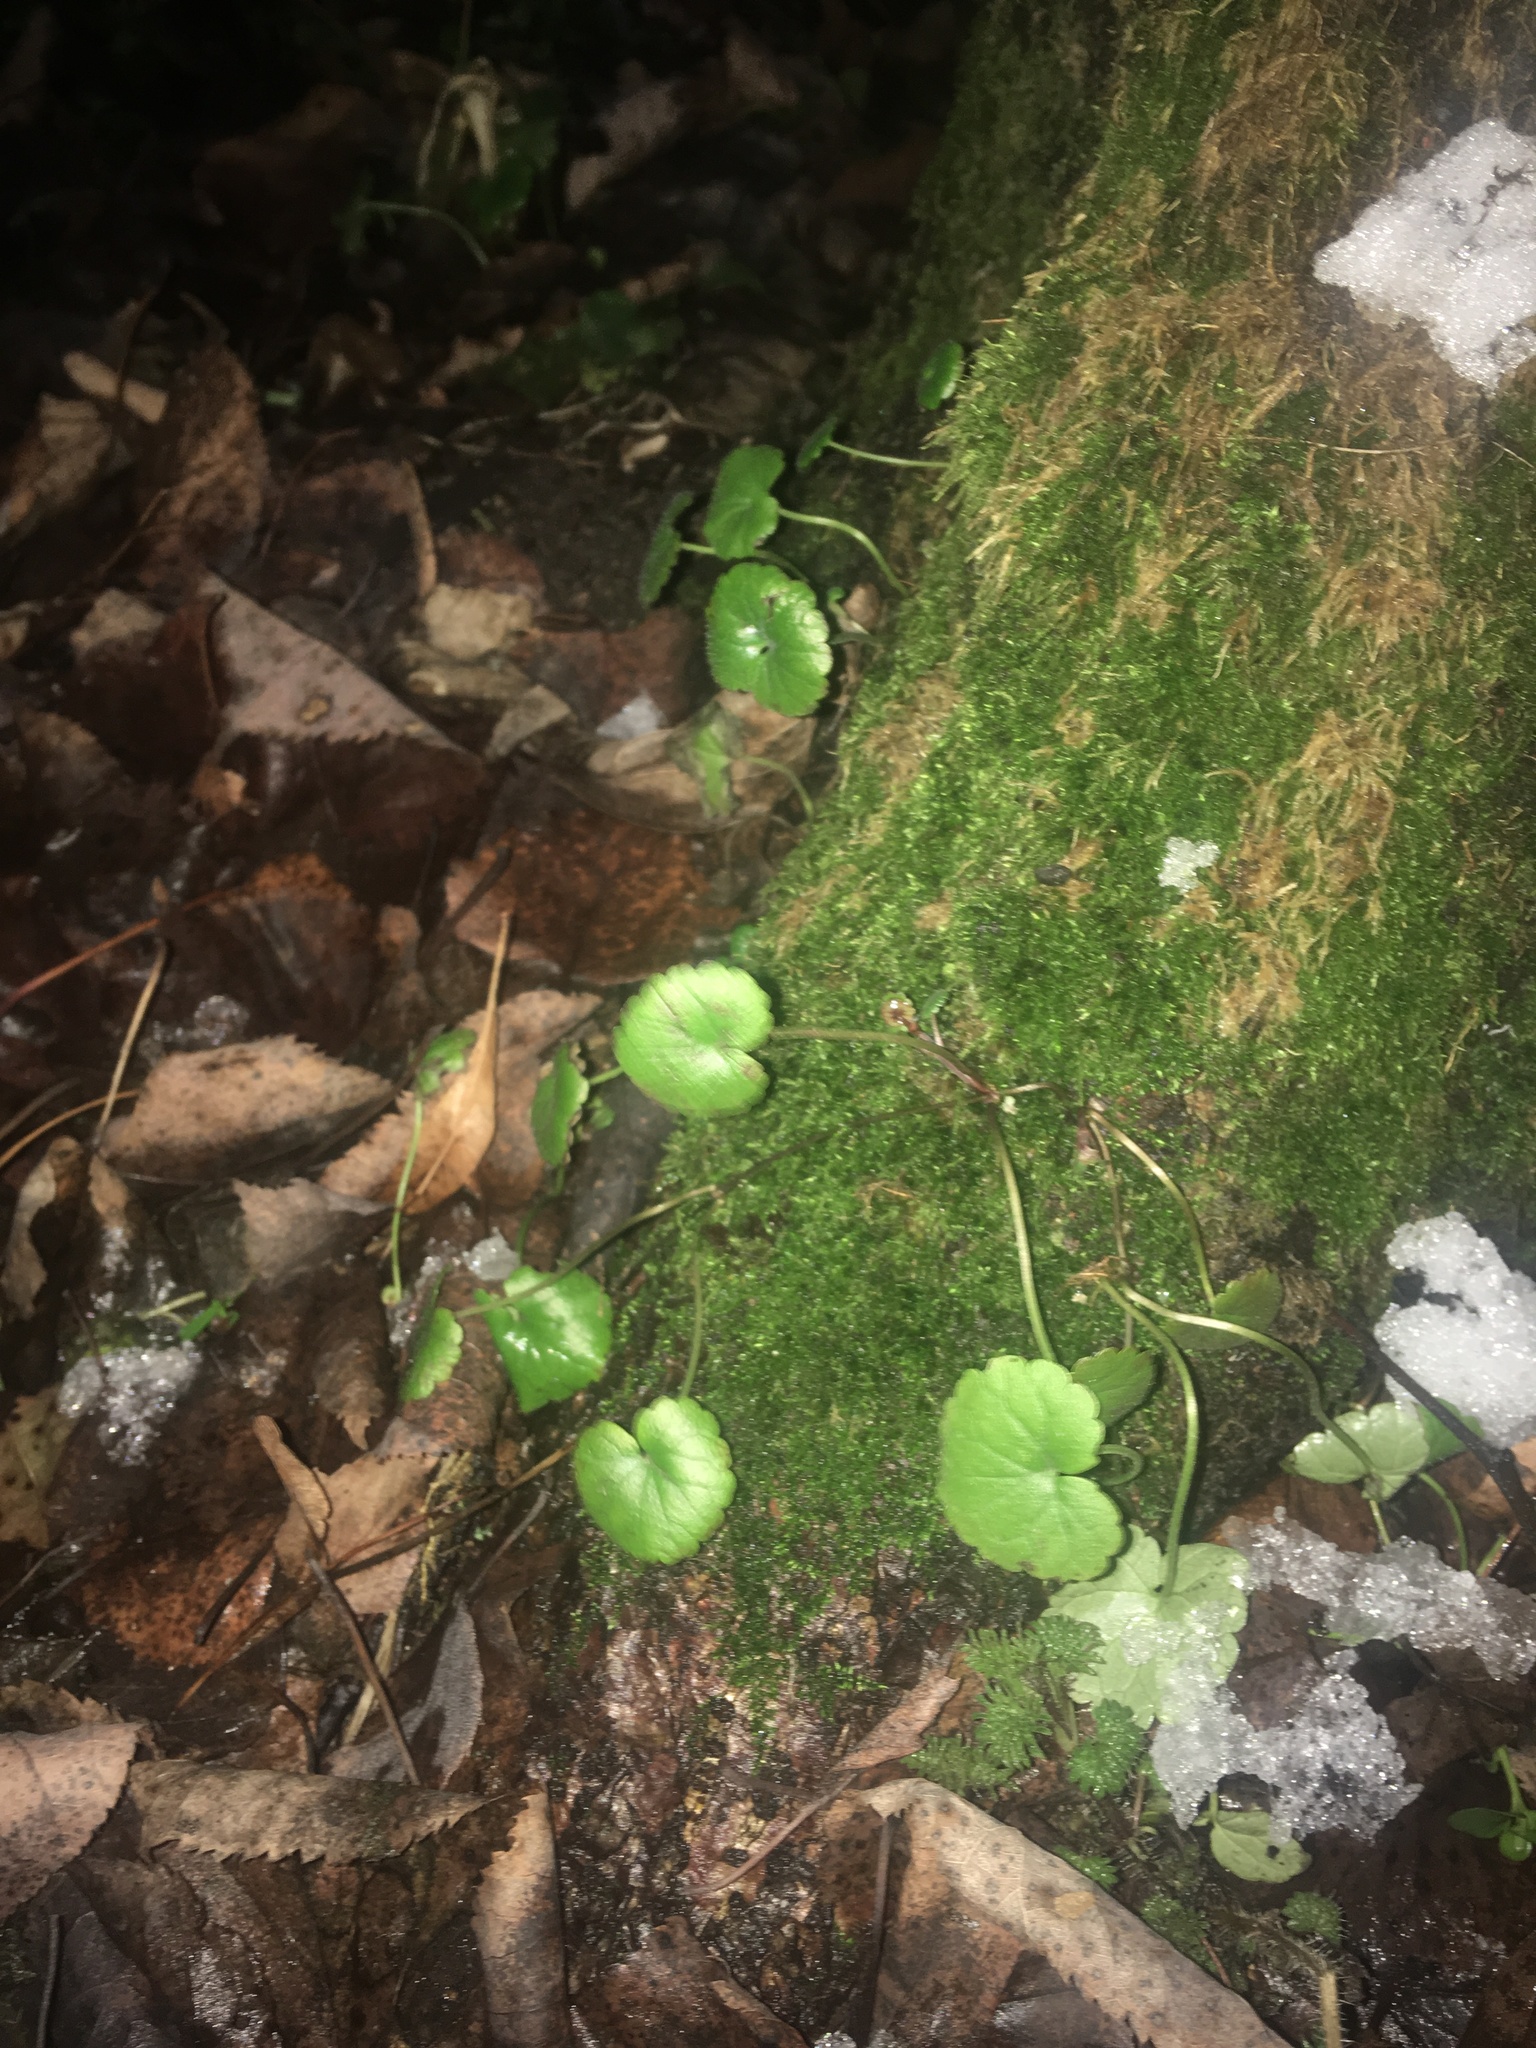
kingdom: Plantae
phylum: Tracheophyta
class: Magnoliopsida
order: Lamiales
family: Lamiaceae
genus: Glechoma
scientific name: Glechoma hederacea
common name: Ground ivy
